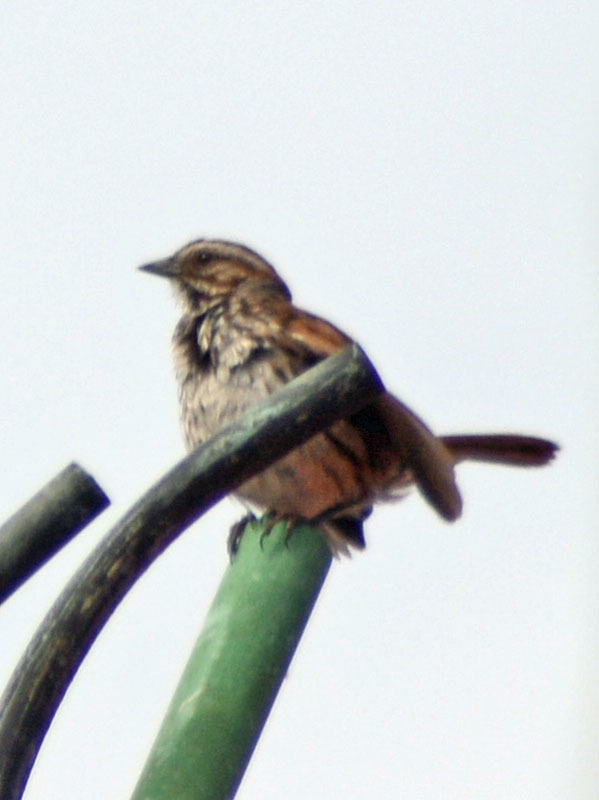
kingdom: Animalia
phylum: Chordata
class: Aves
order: Passeriformes
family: Passerellidae
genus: Melospiza
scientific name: Melospiza melodia
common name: Song sparrow
